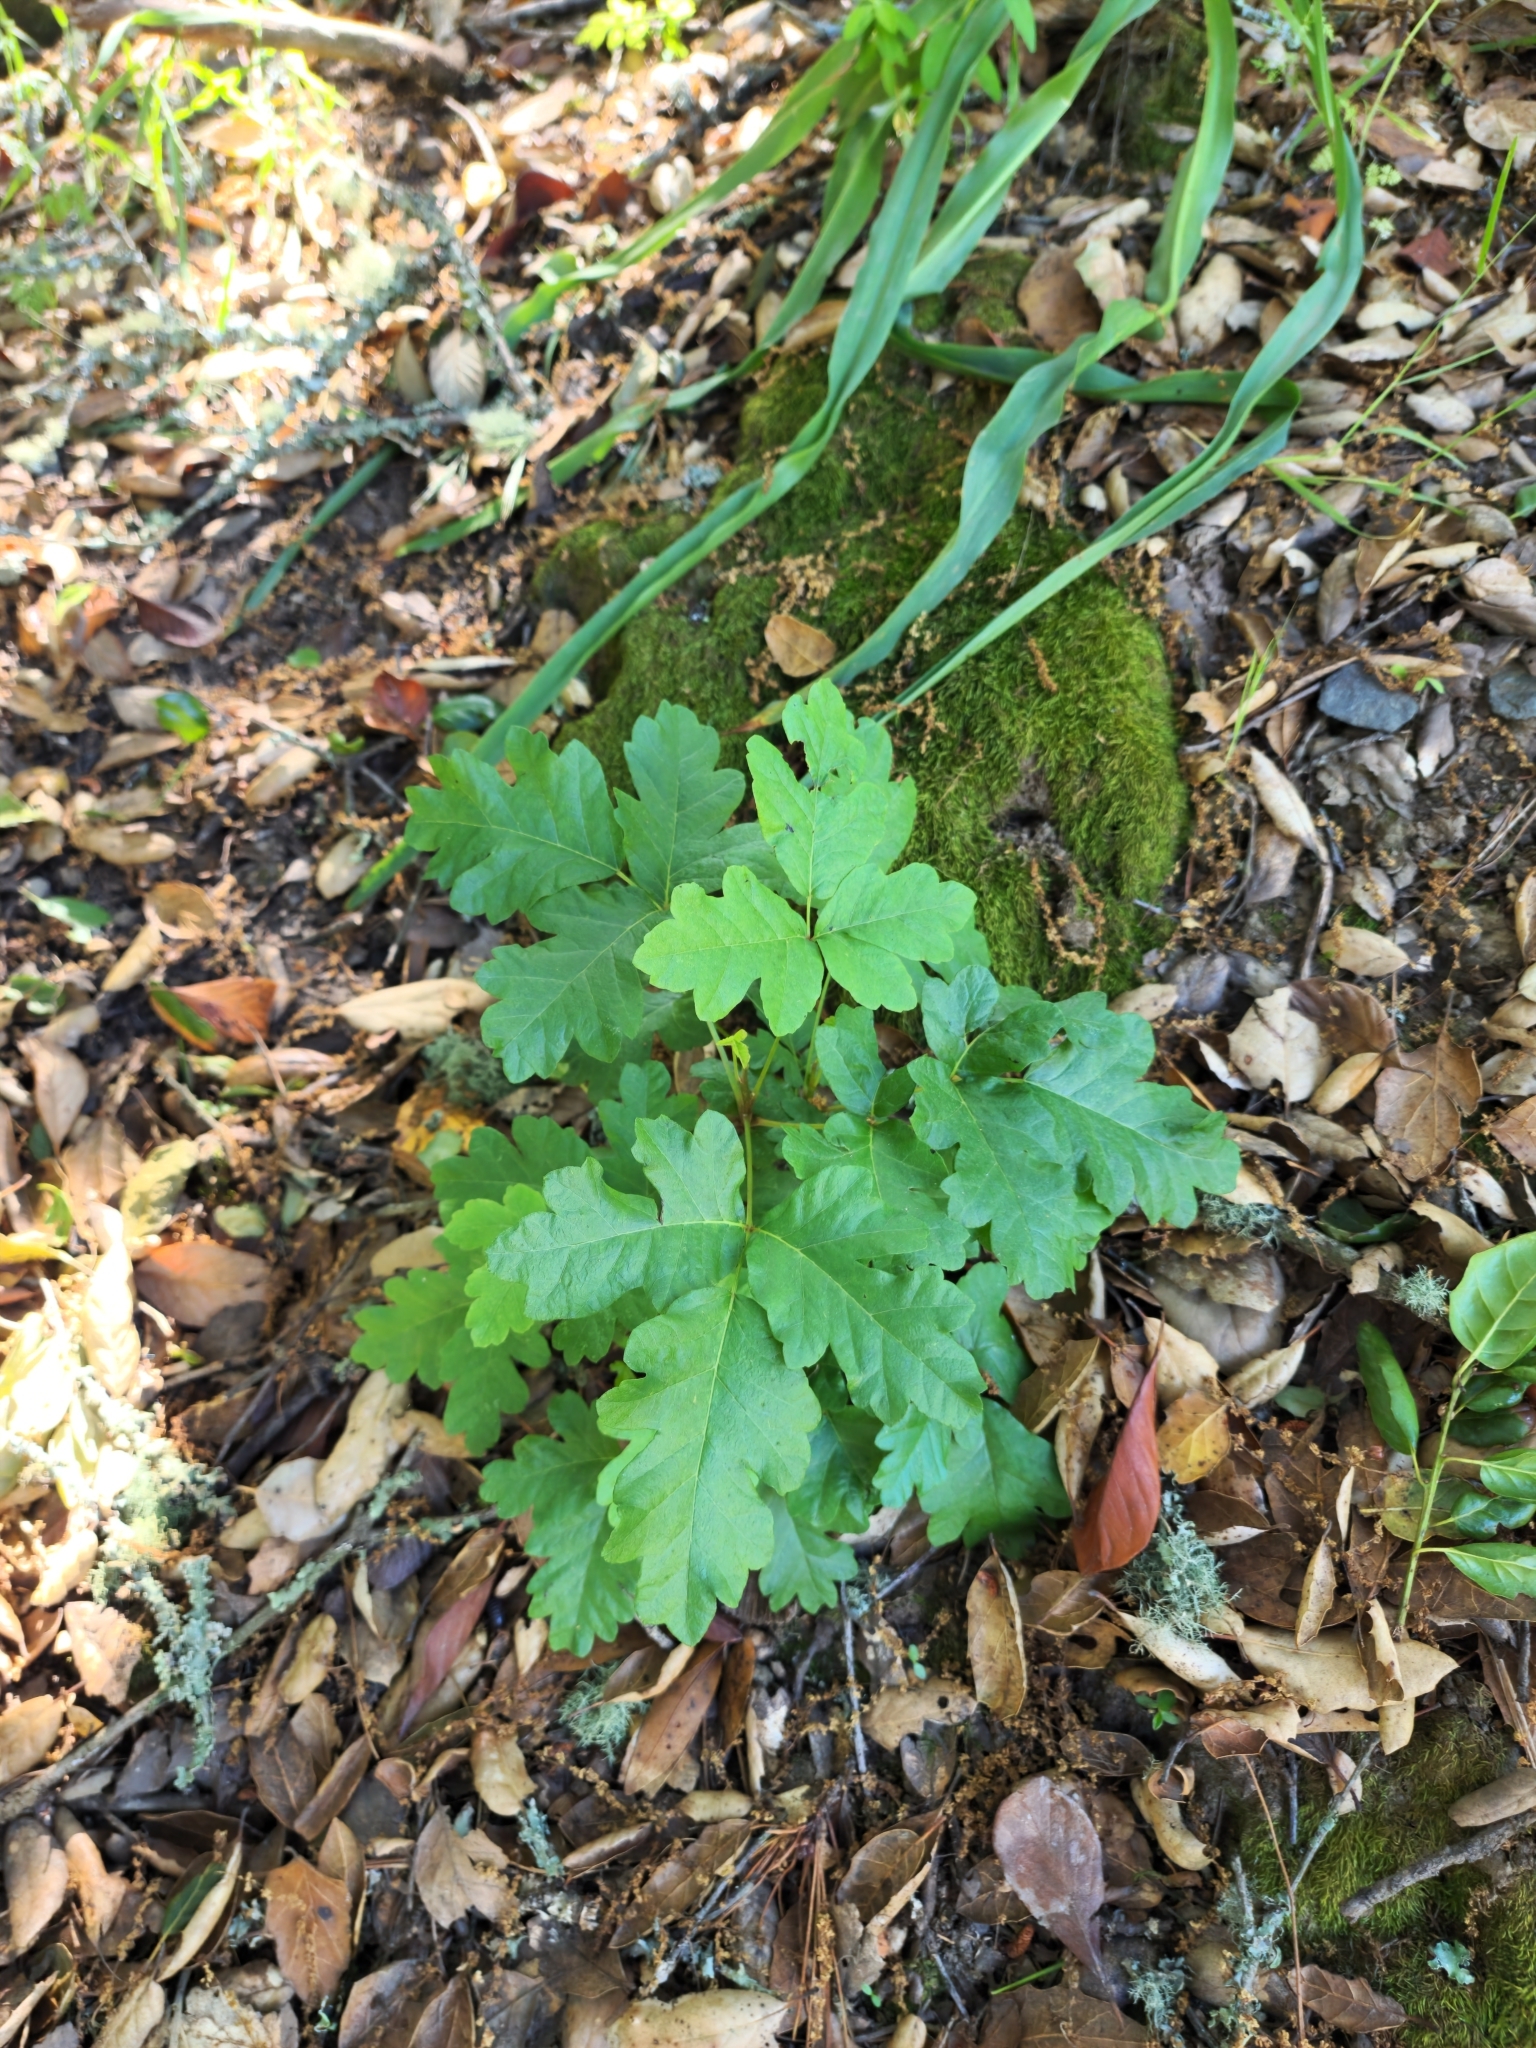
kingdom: Plantae
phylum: Tracheophyta
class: Magnoliopsida
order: Sapindales
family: Anacardiaceae
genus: Toxicodendron
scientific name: Toxicodendron diversilobum
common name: Pacific poison-oak
